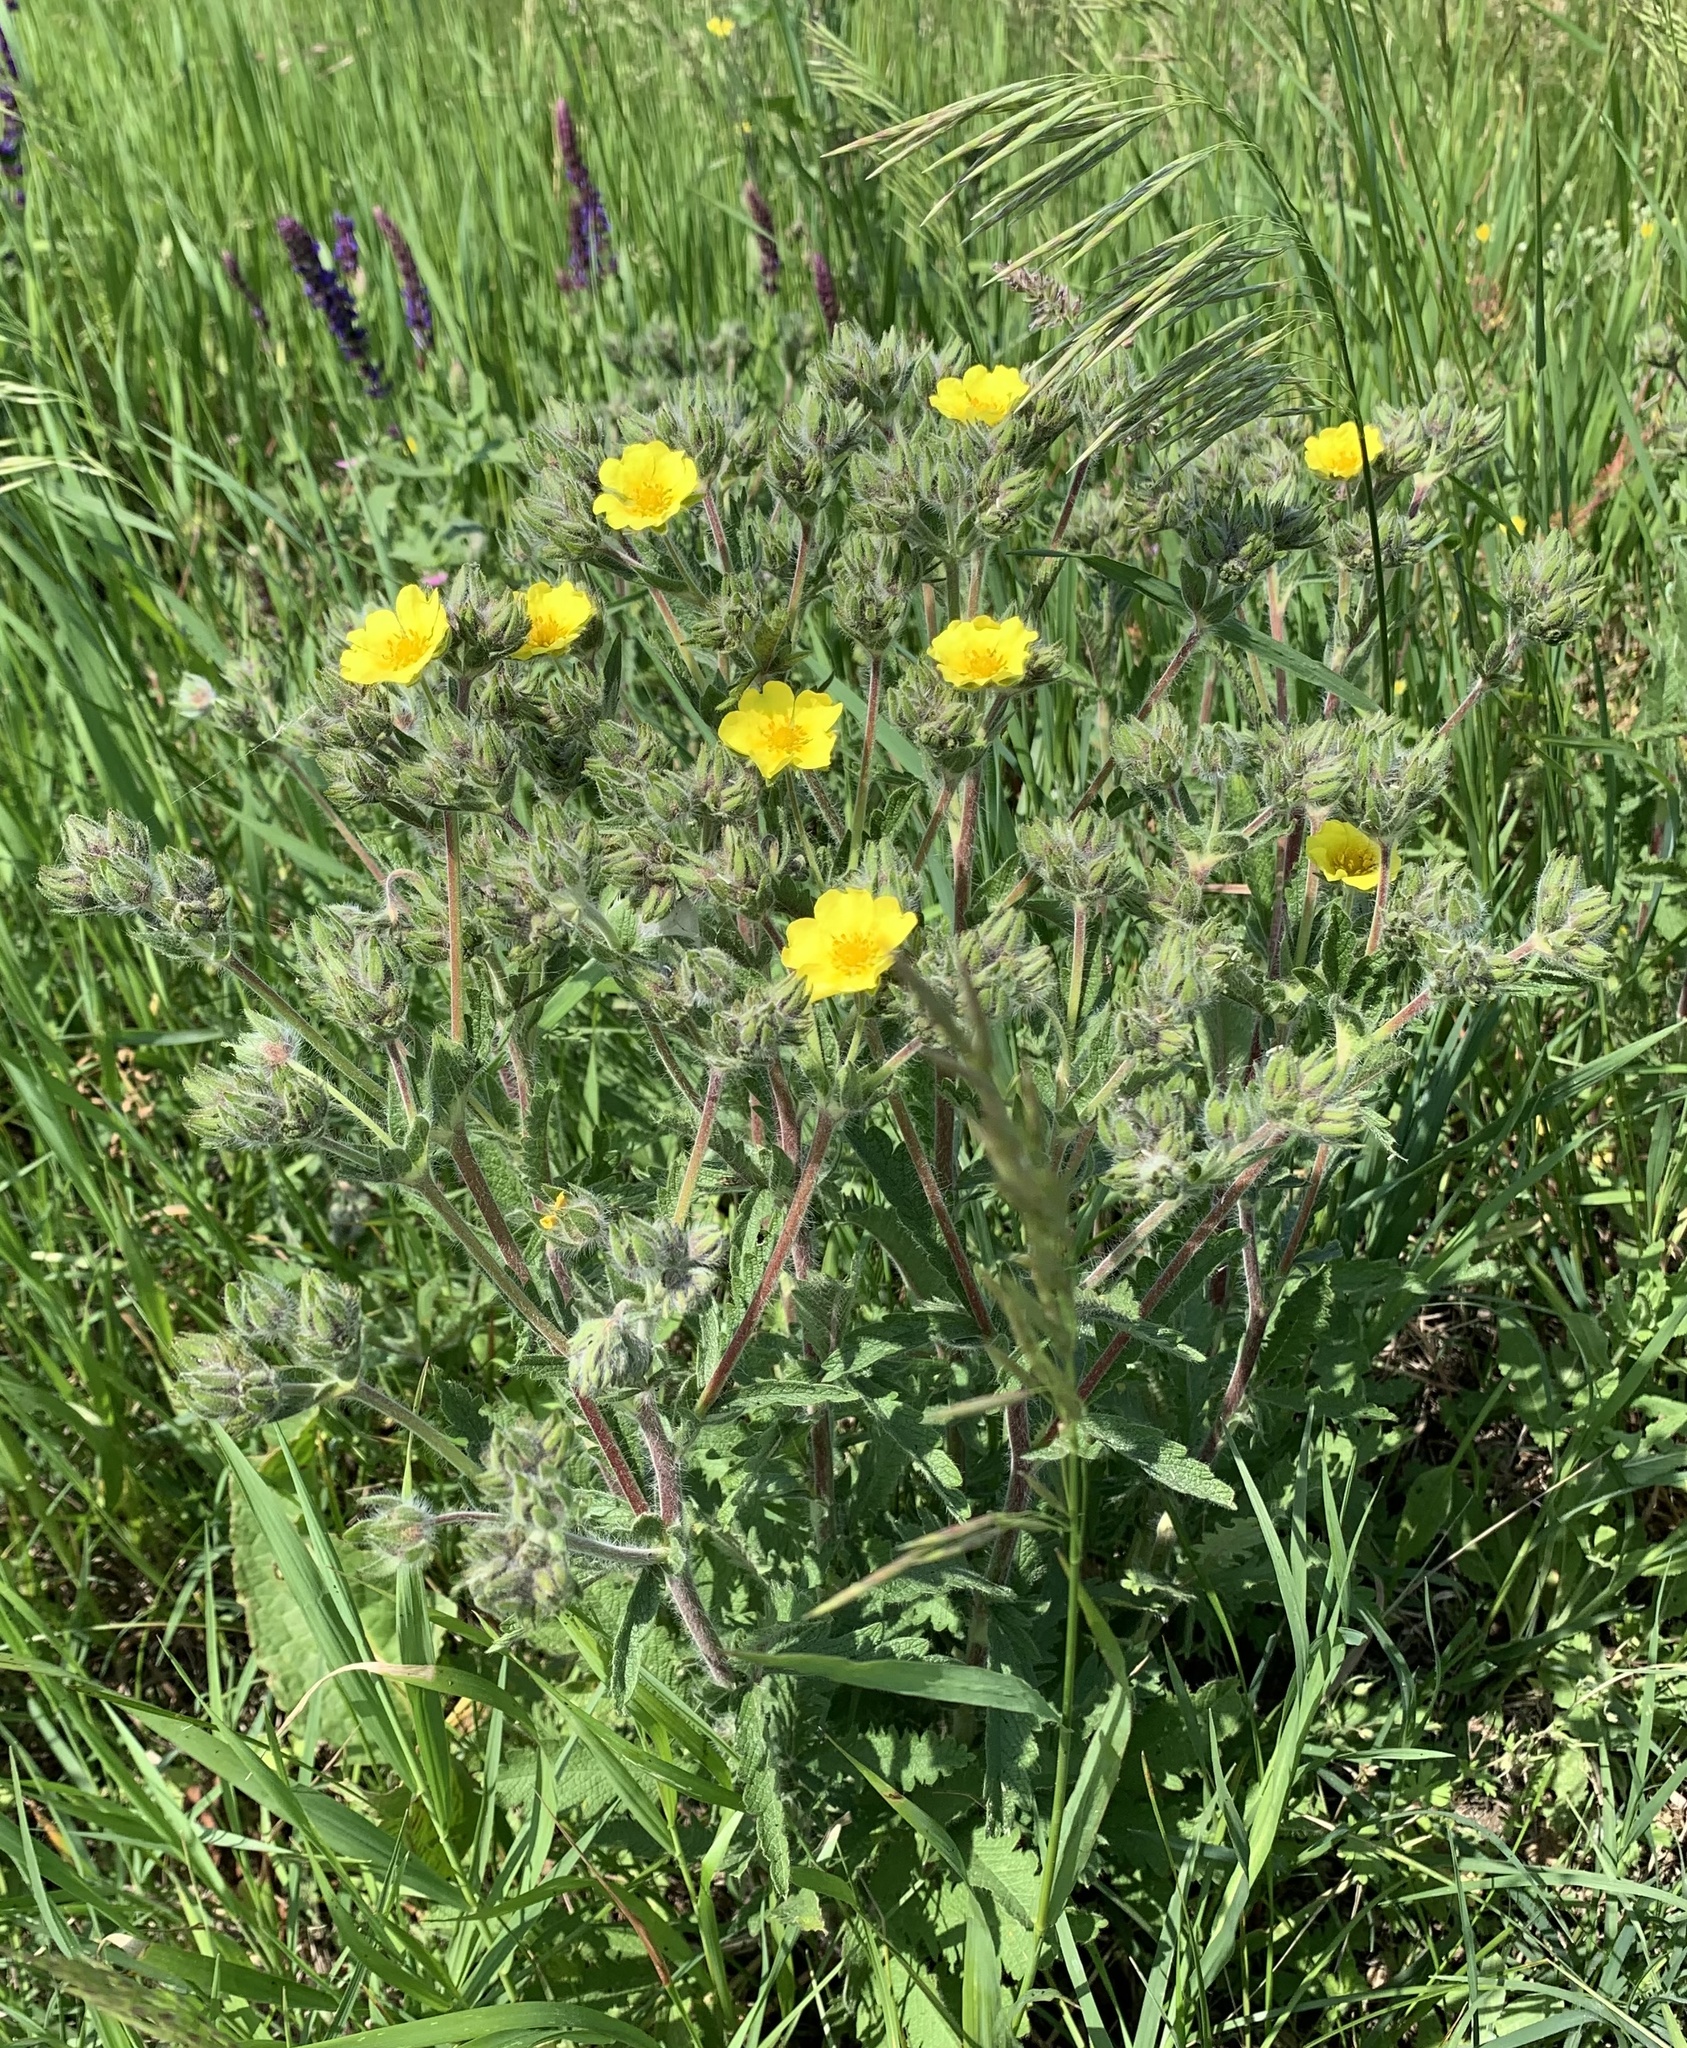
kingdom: Plantae
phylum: Tracheophyta
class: Magnoliopsida
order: Rosales
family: Rosaceae
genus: Potentilla
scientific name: Potentilla recta
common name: Sulphur cinquefoil
